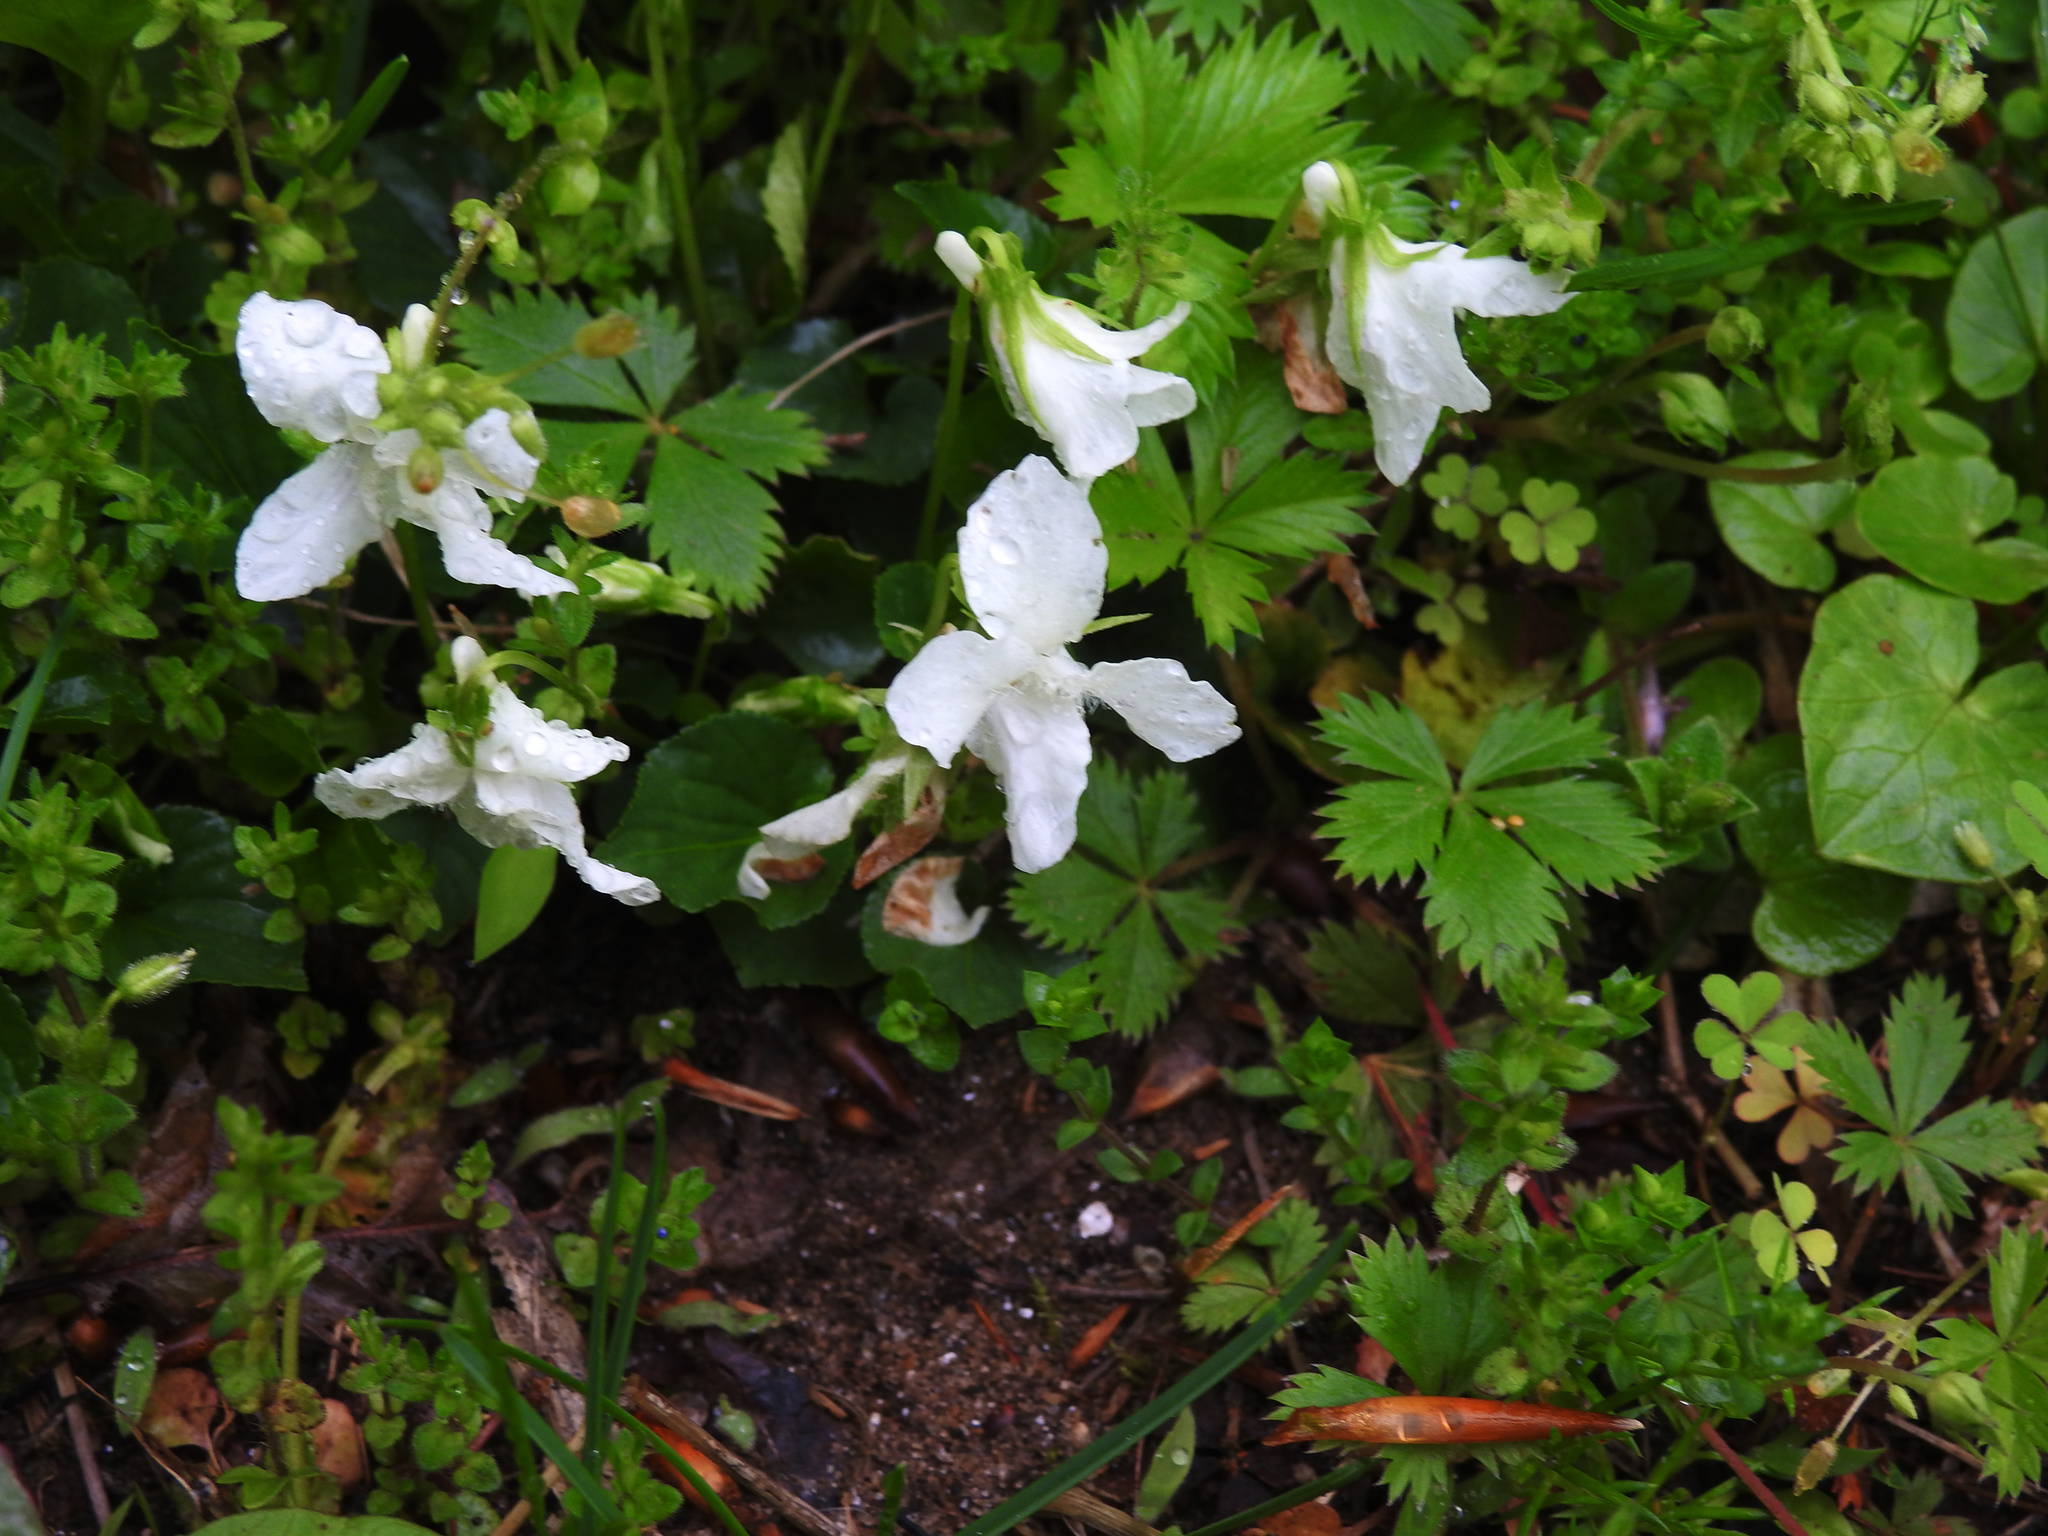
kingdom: Plantae
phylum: Tracheophyta
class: Magnoliopsida
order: Malpighiales
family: Violaceae
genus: Viola
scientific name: Viola striata
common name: Cream violet
